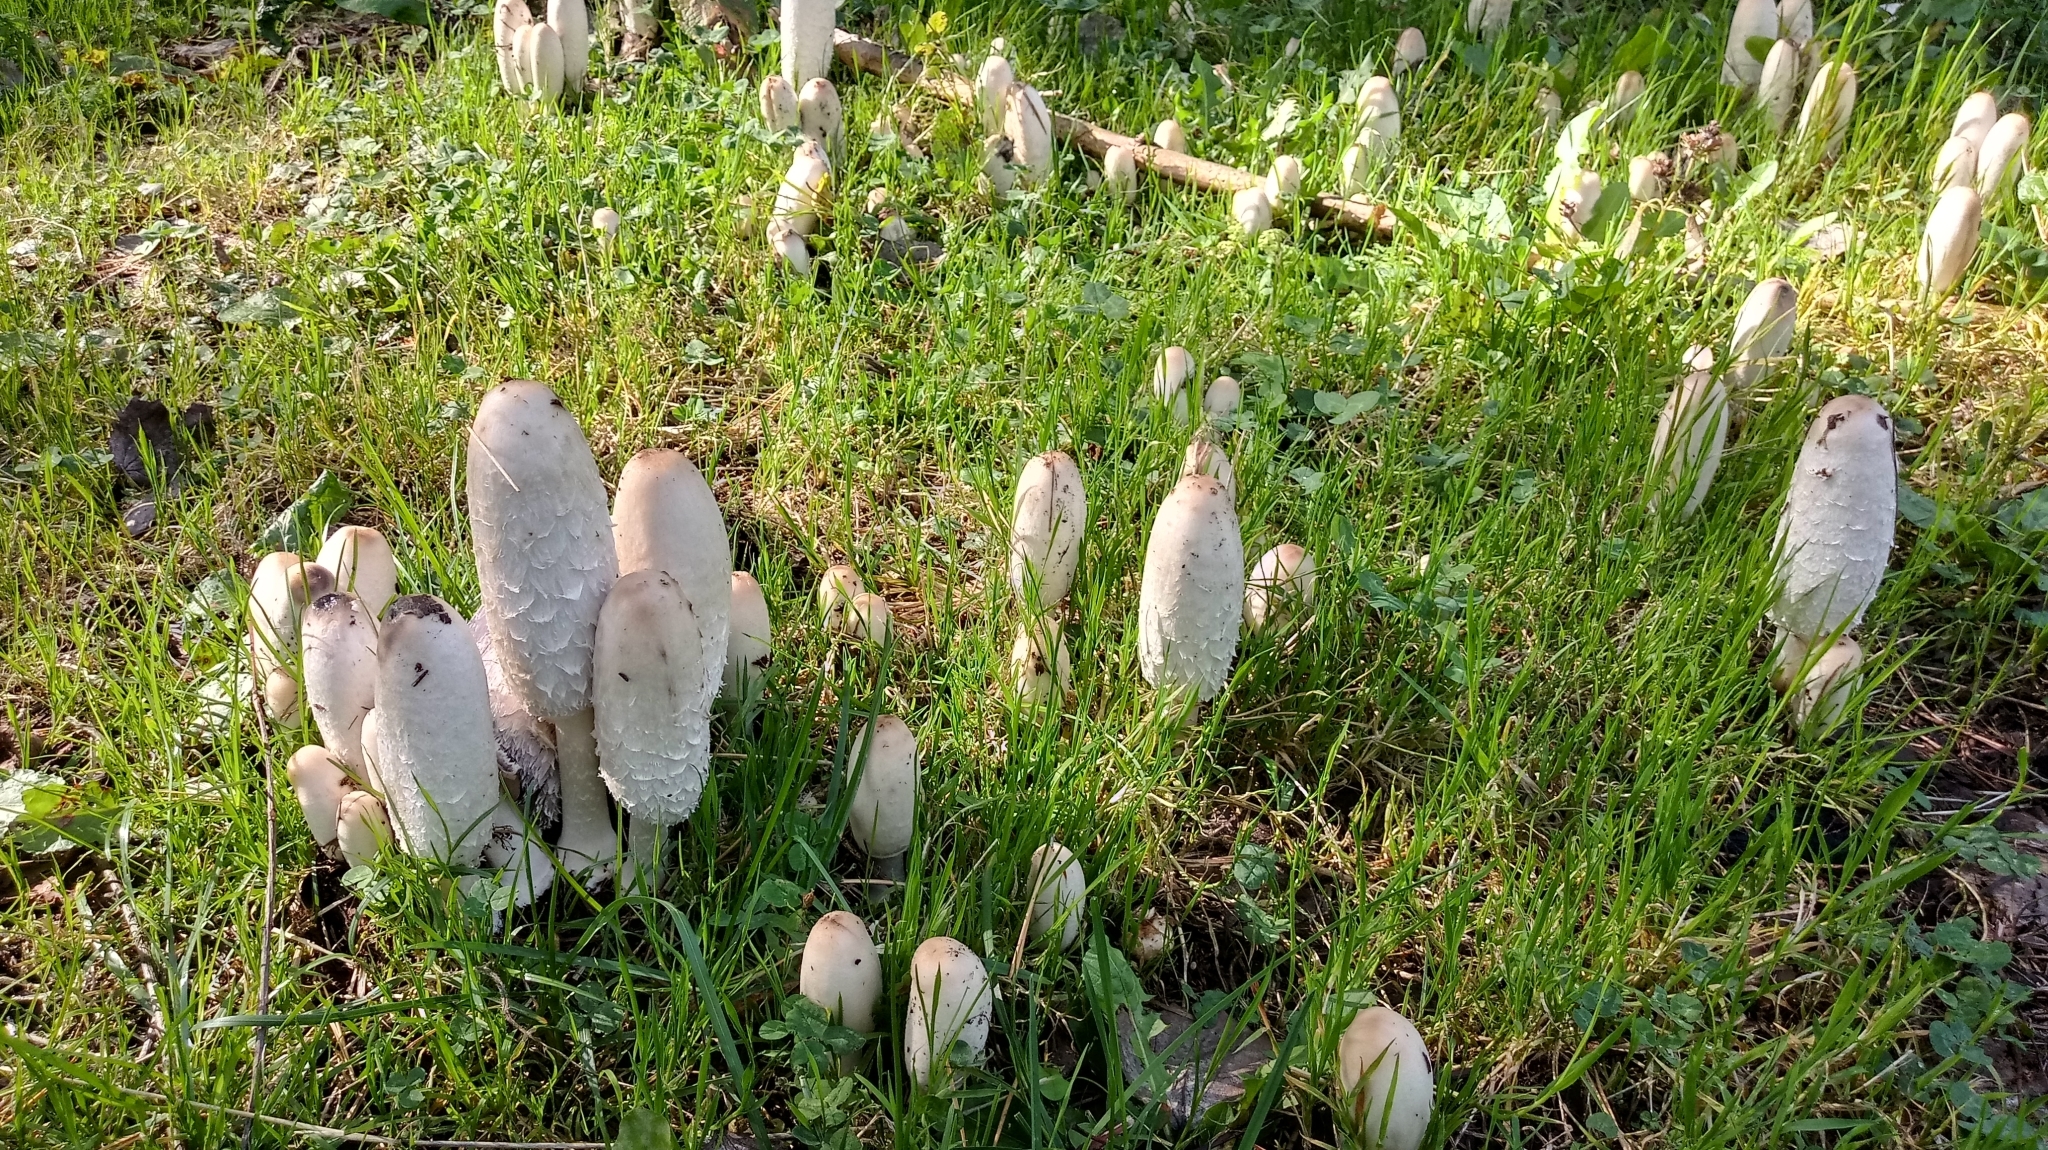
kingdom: Fungi
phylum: Basidiomycota
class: Agaricomycetes
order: Agaricales
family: Agaricaceae
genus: Coprinus
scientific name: Coprinus comatus
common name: Lawyer's wig
